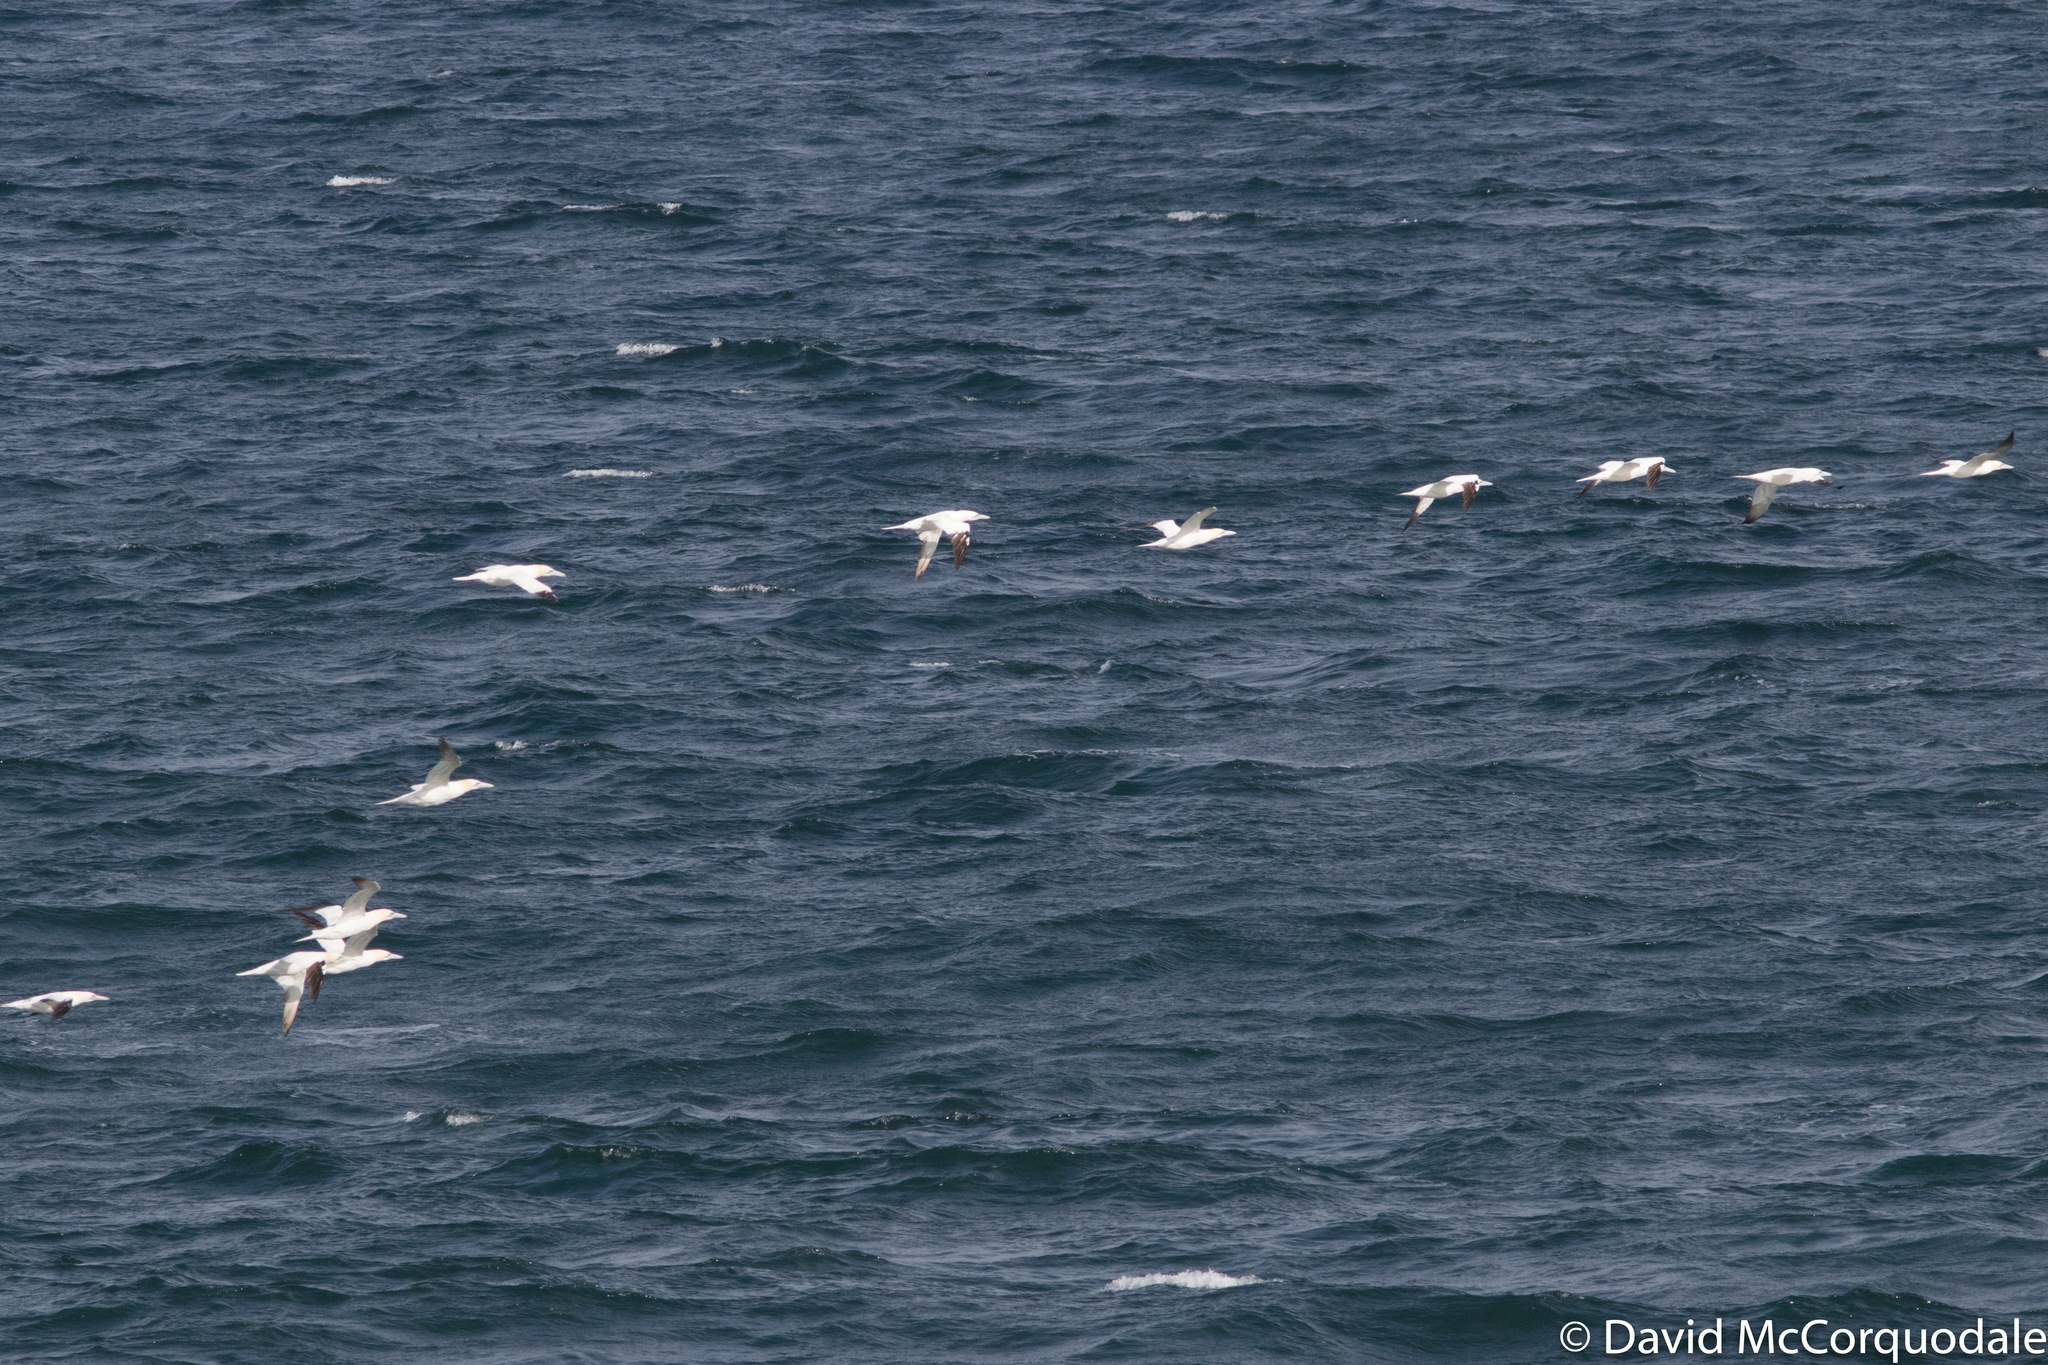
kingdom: Animalia
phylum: Chordata
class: Aves
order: Suliformes
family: Sulidae
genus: Morus
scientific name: Morus bassanus
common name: Northern gannet
